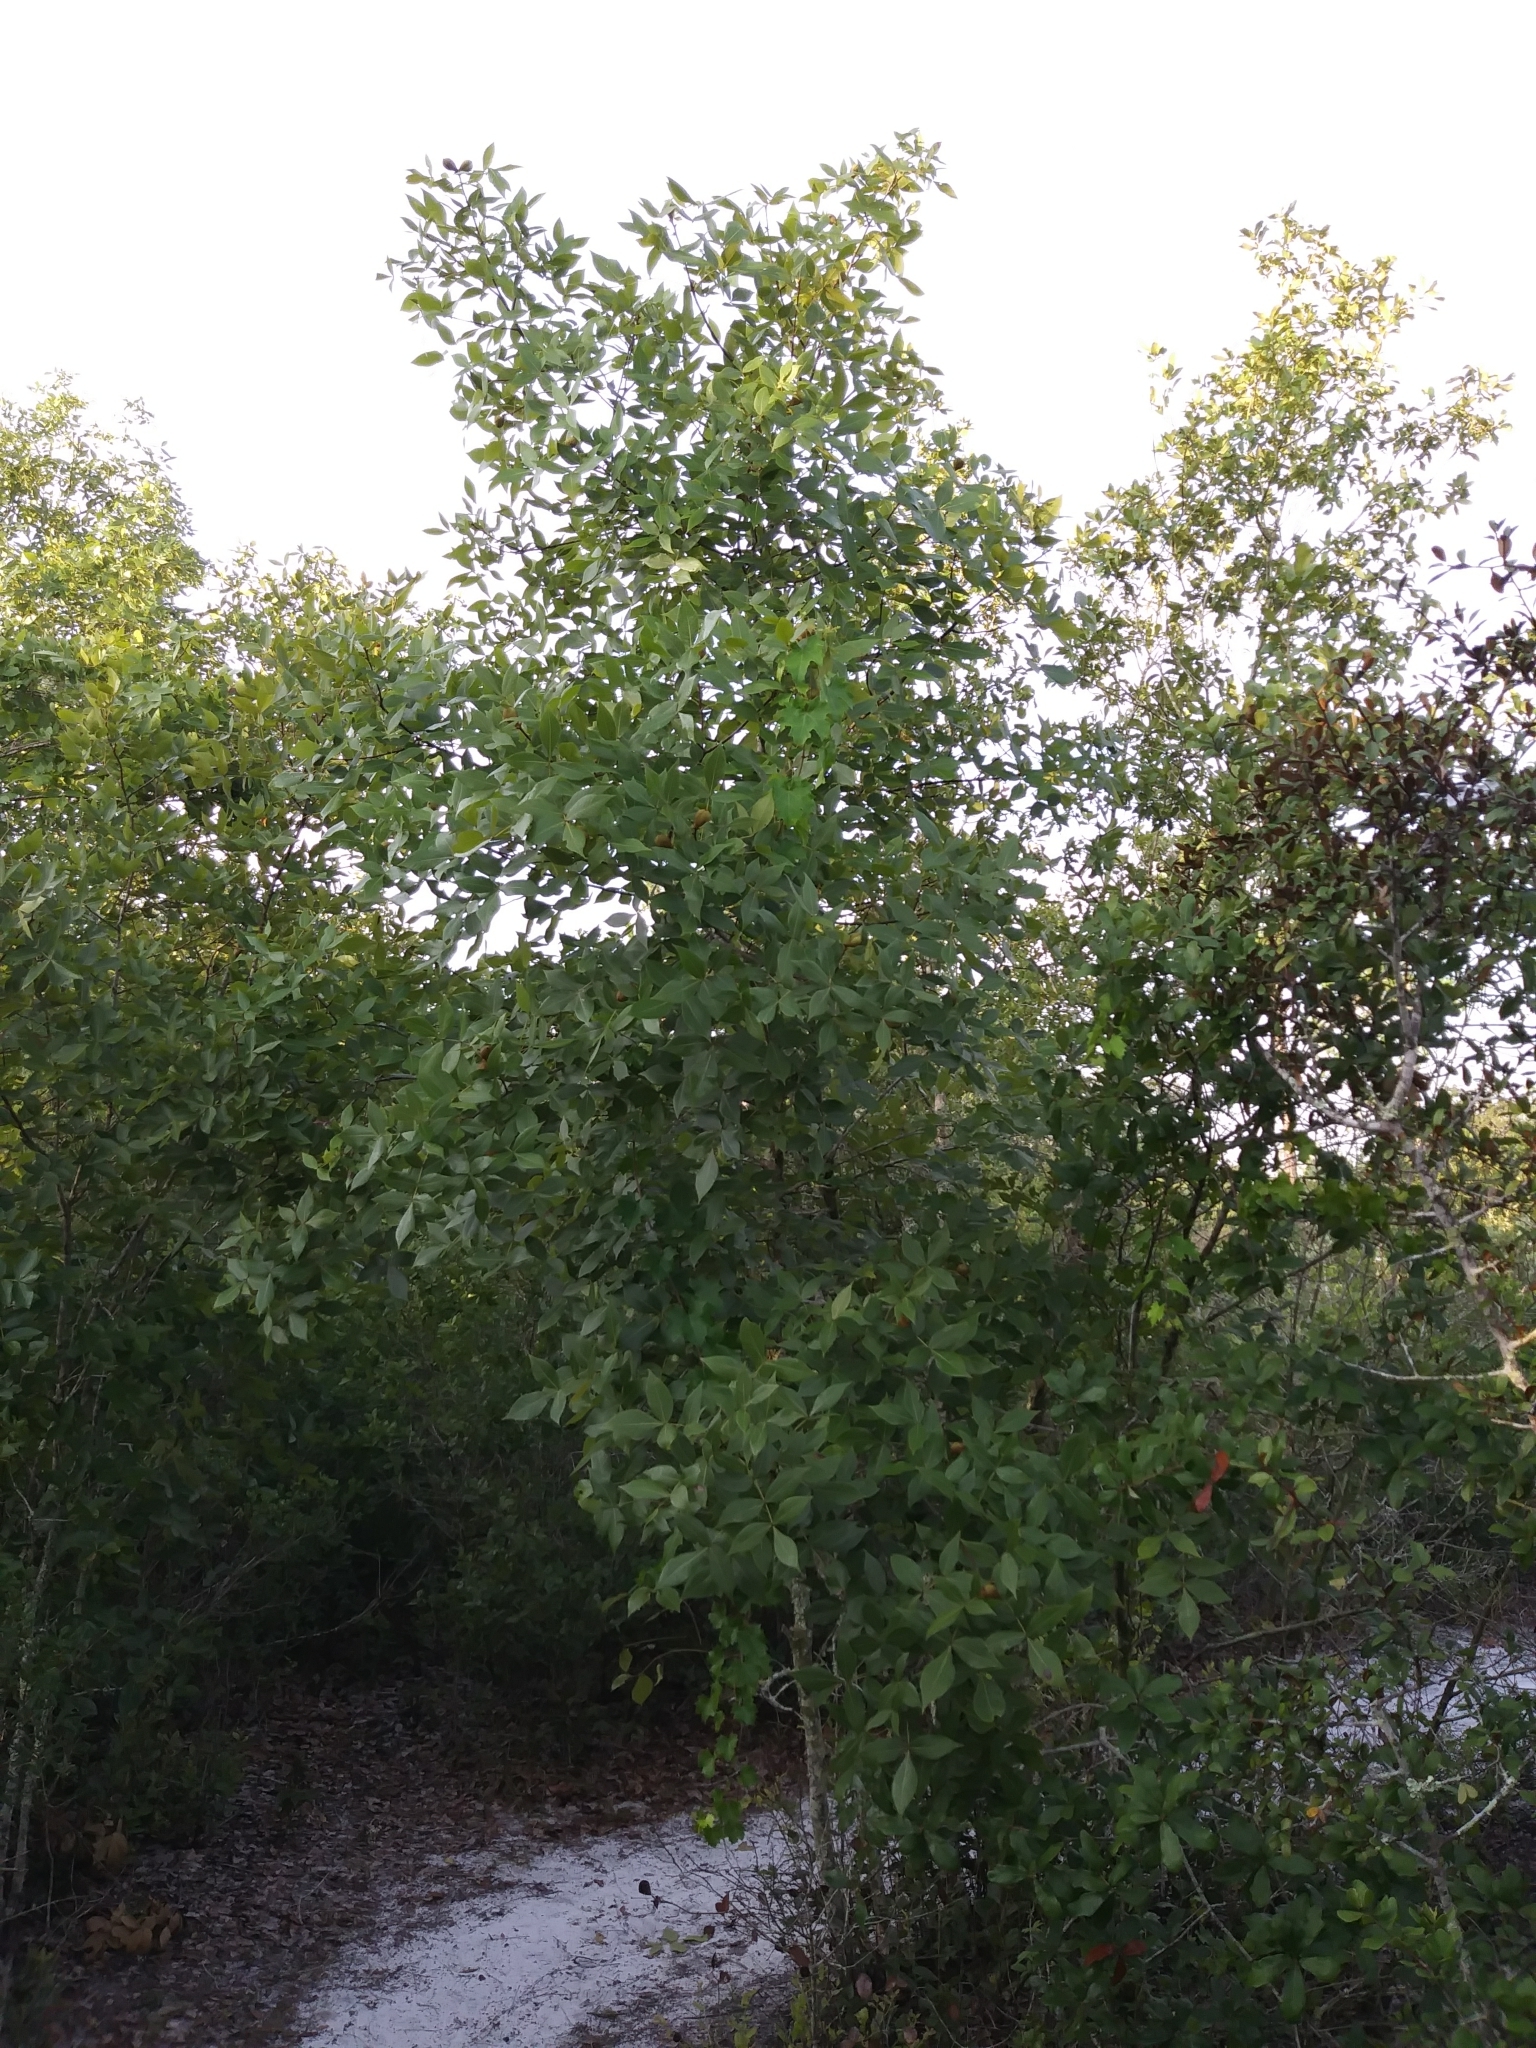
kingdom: Plantae
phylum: Tracheophyta
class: Magnoliopsida
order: Fagales
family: Juglandaceae
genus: Carya
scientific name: Carya floridana
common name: Scrub hickory
